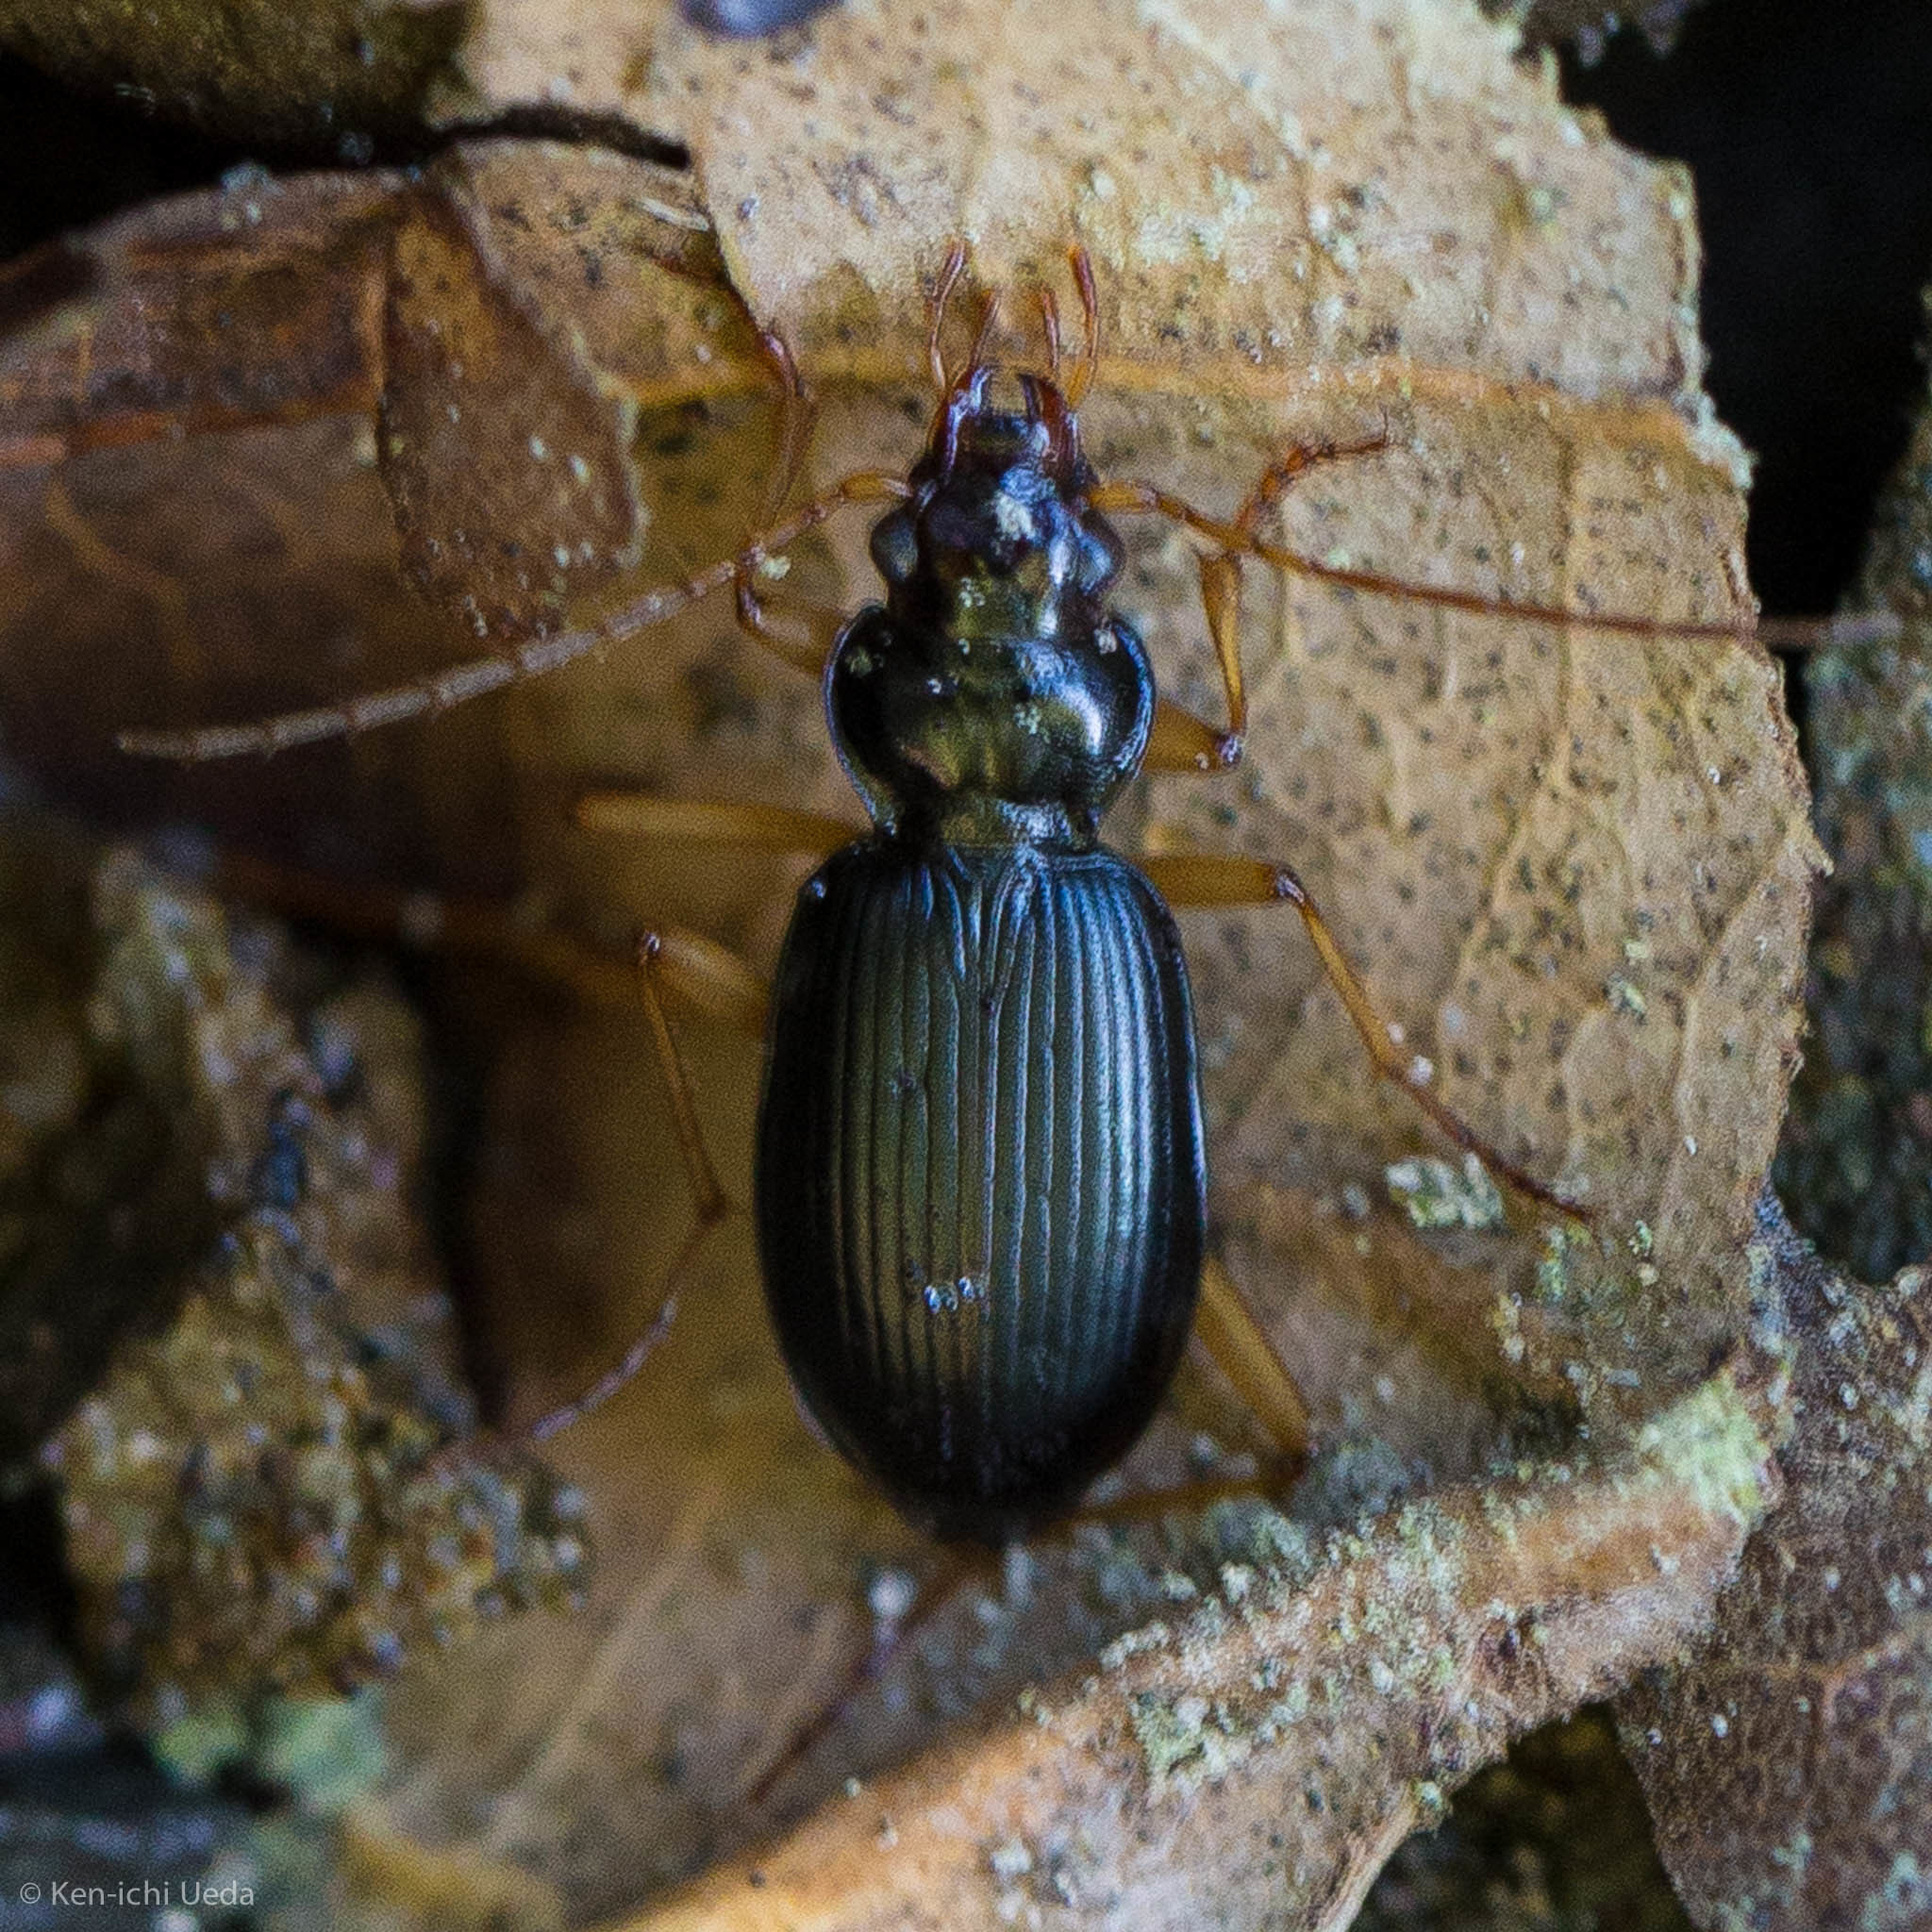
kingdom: Animalia
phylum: Arthropoda
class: Insecta
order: Coleoptera
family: Carabidae
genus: Nebria
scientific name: Nebria eschscholtzii
